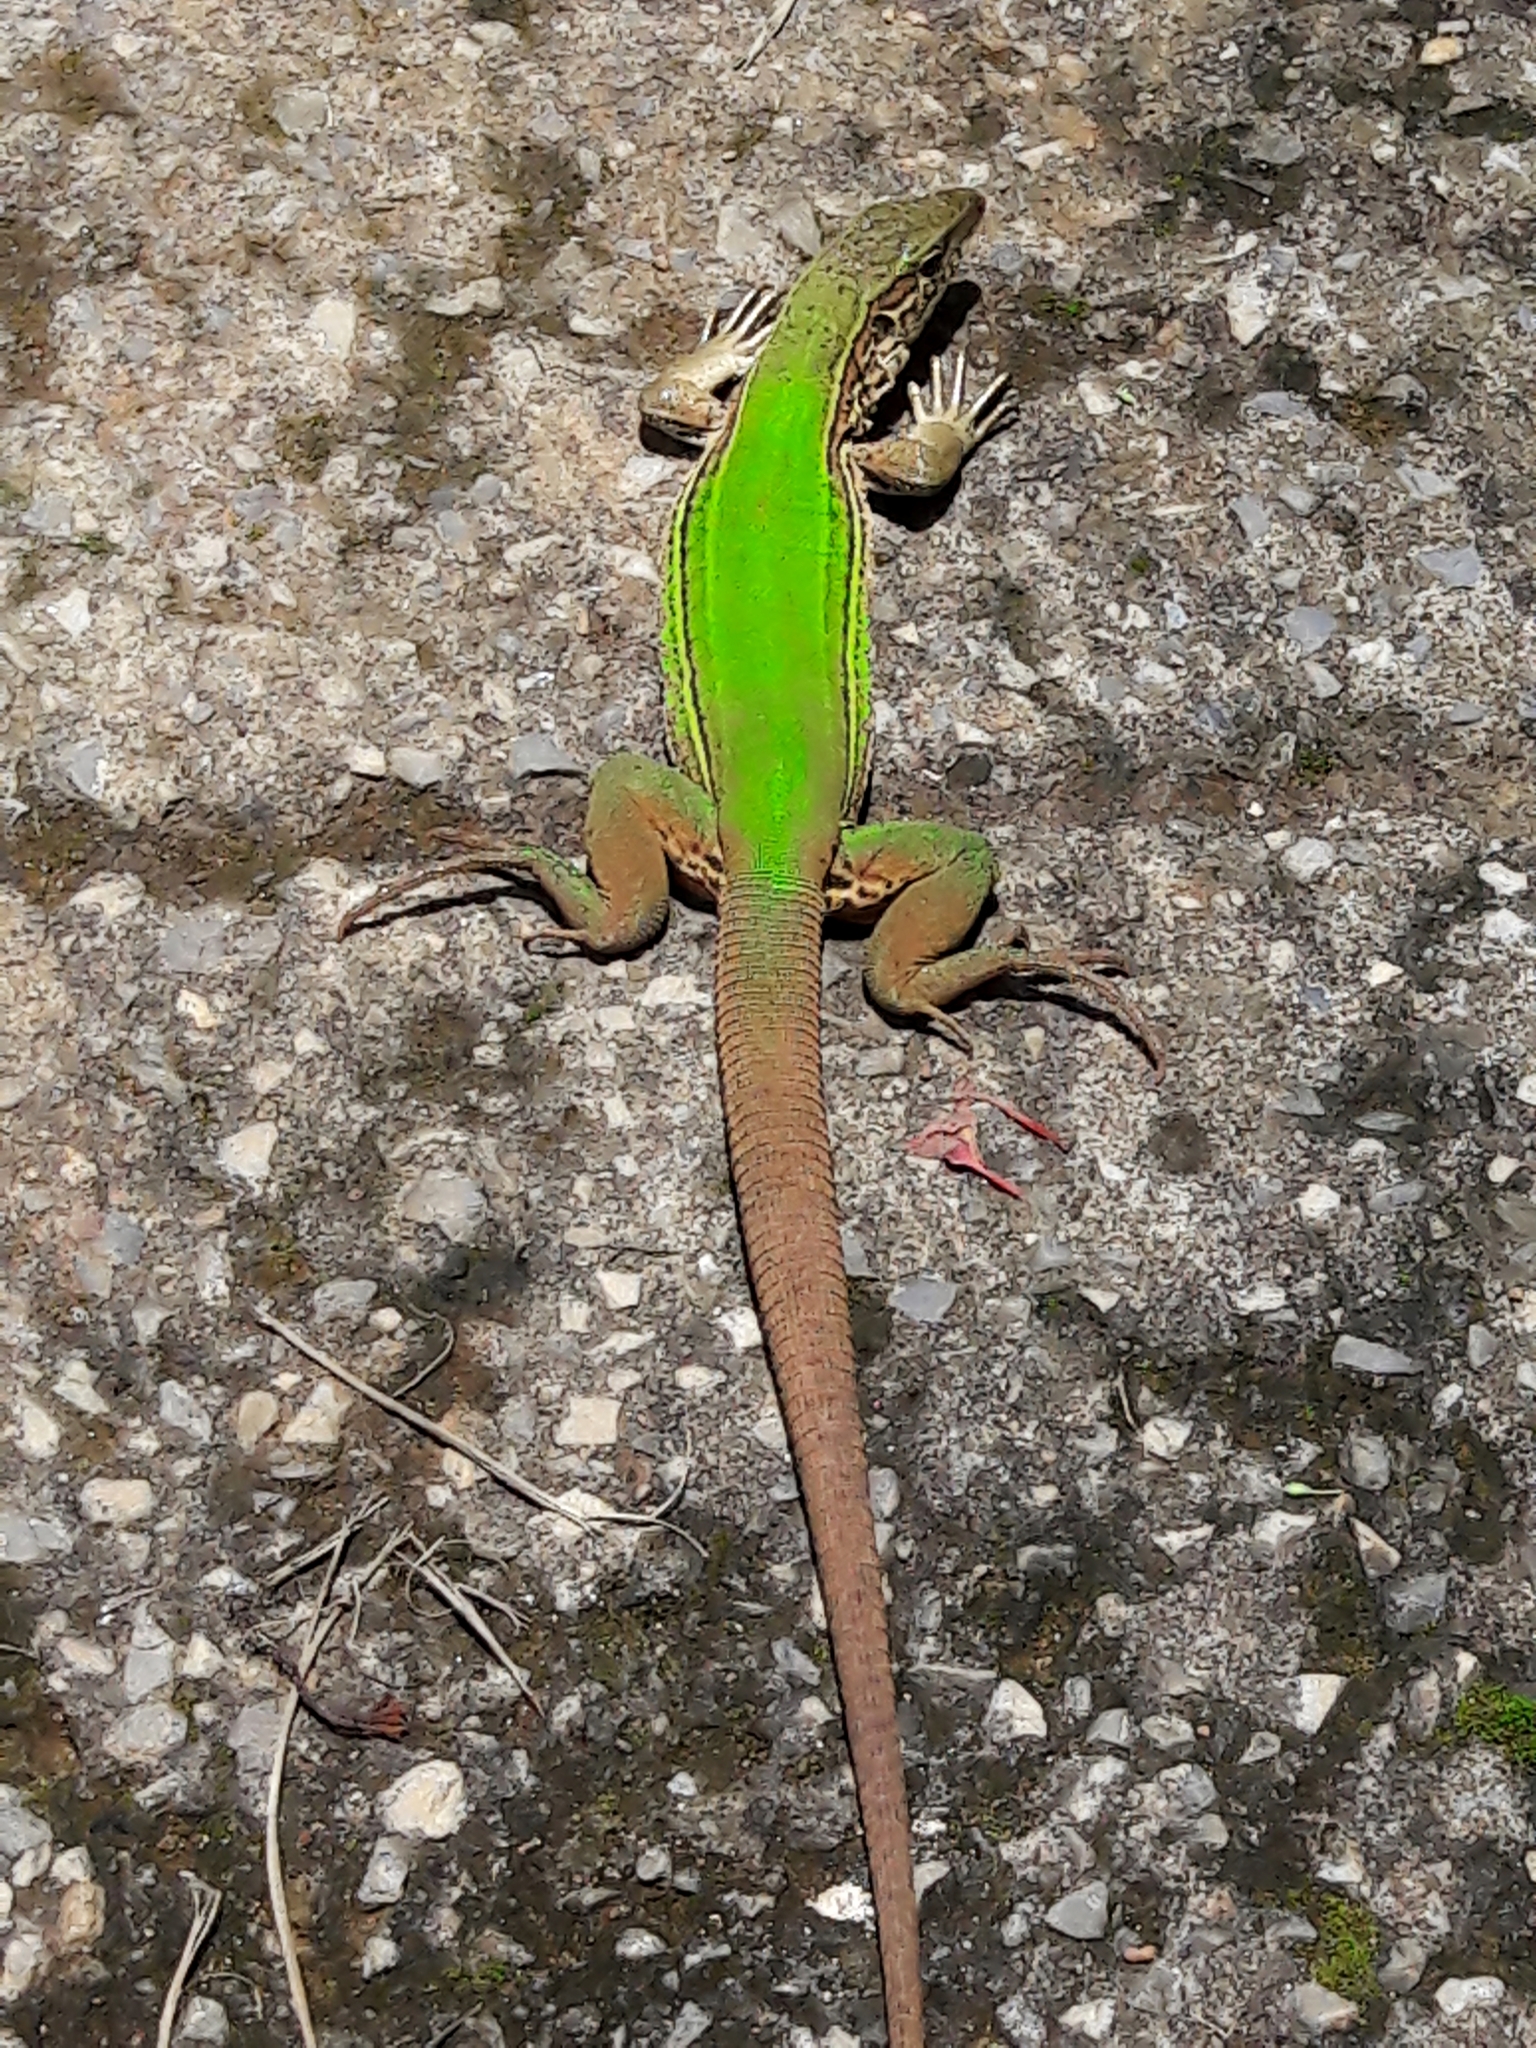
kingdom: Animalia
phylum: Chordata
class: Squamata
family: Teiidae
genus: Ameiva
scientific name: Ameiva ameiva
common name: Giant ameiva
